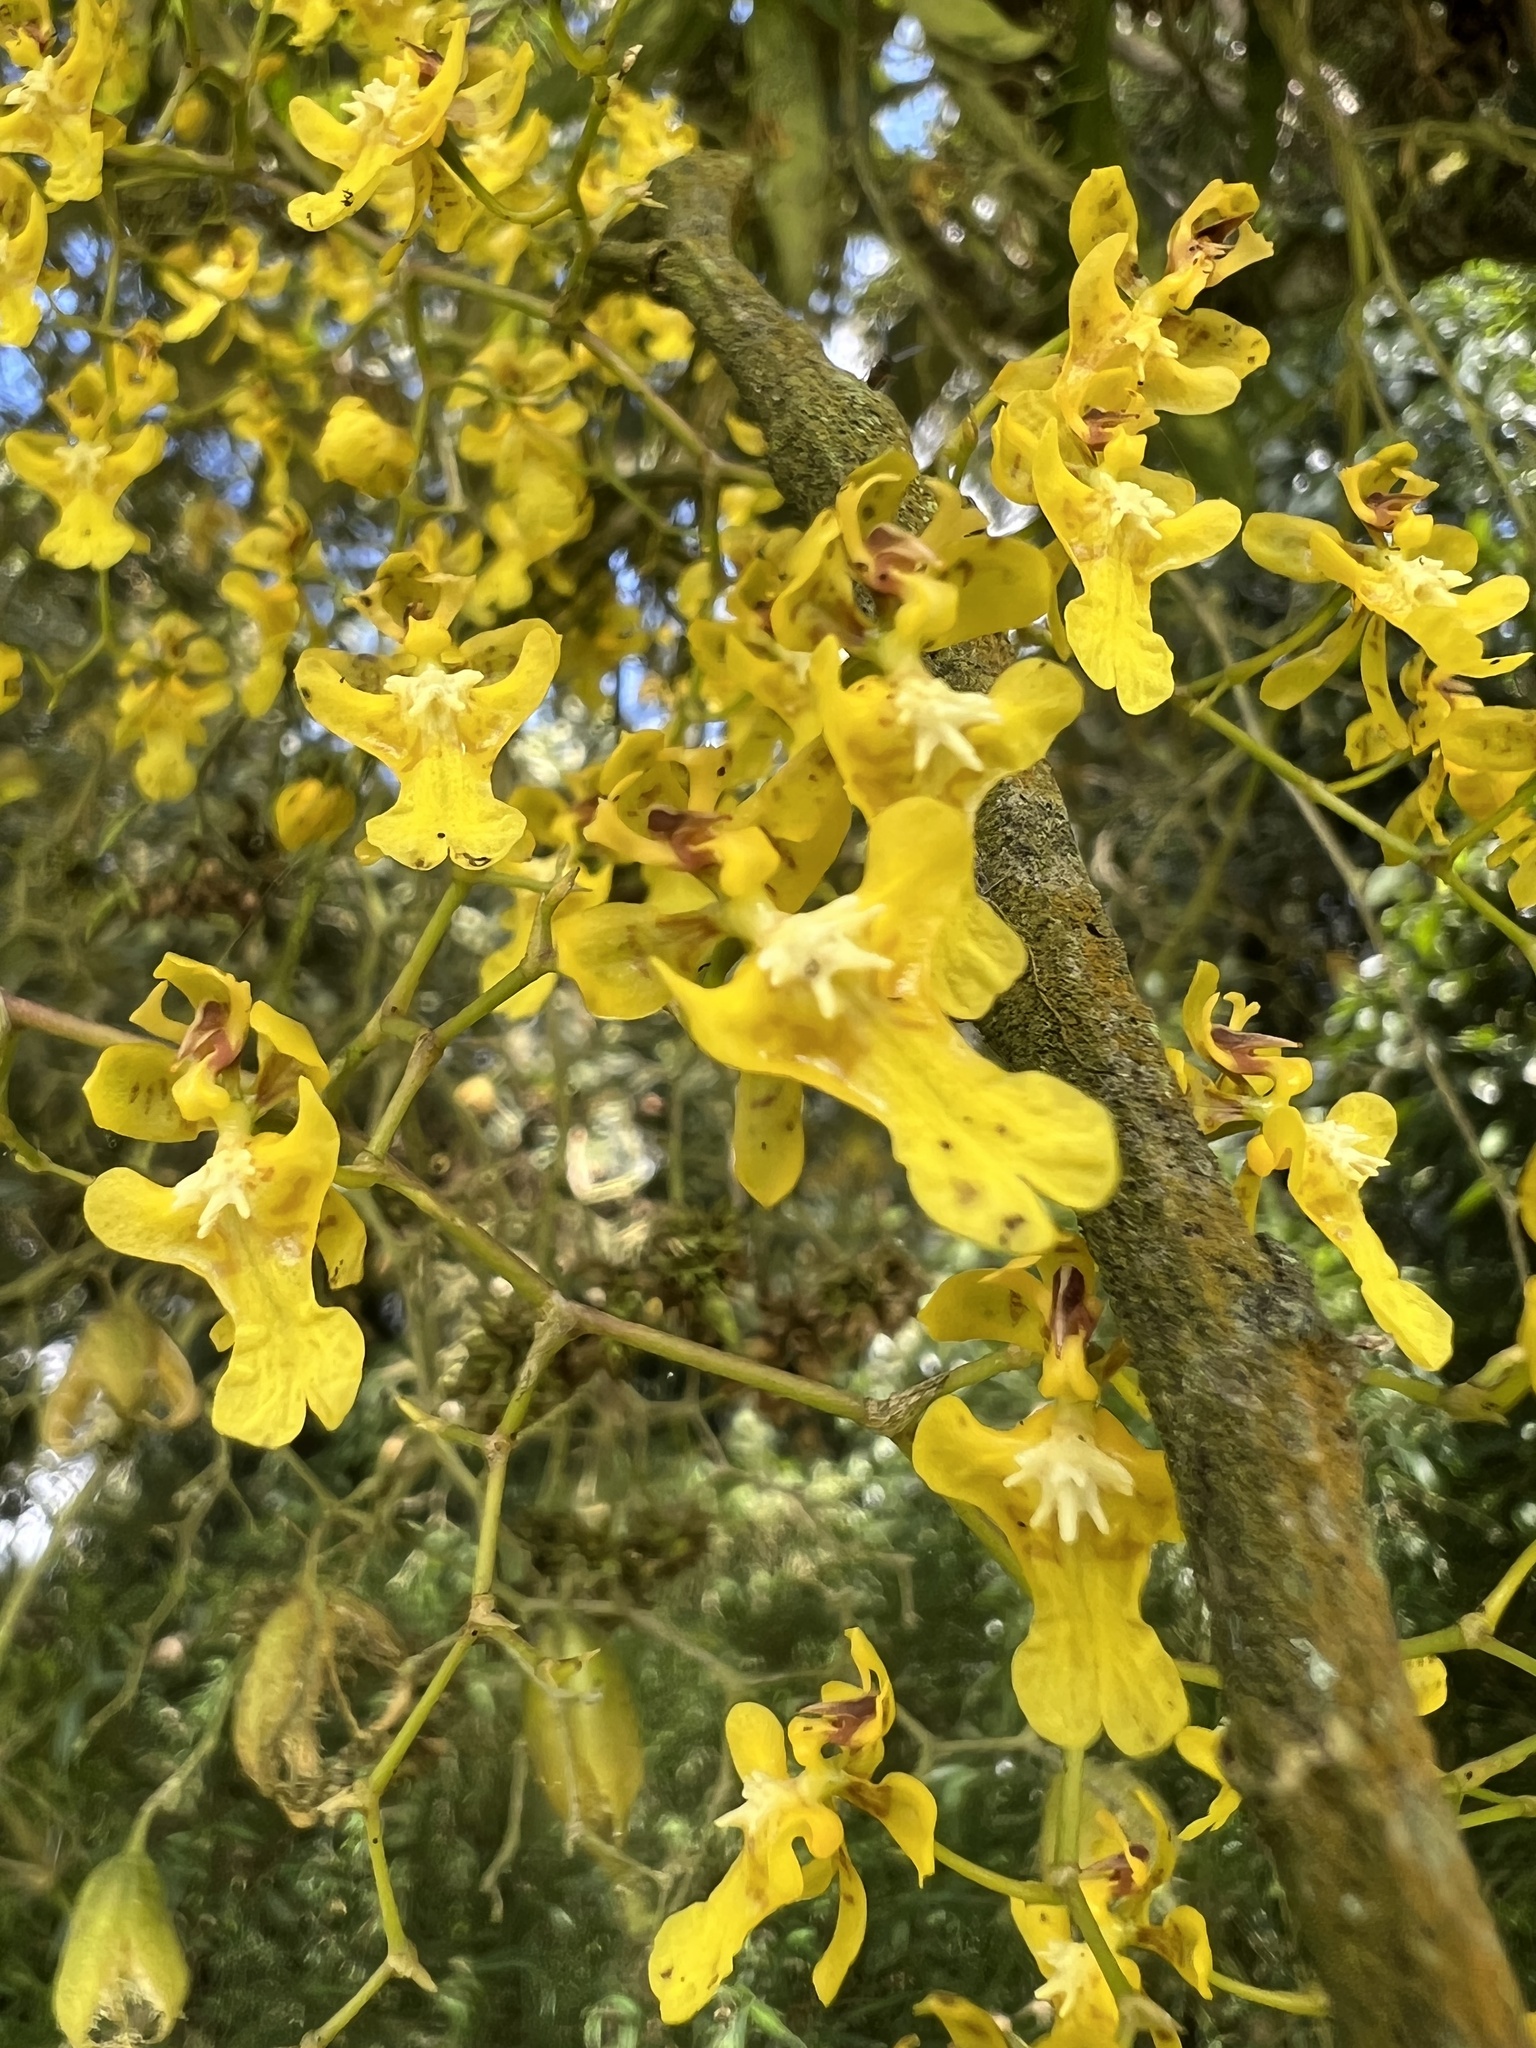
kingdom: Plantae
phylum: Tracheophyta
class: Liliopsida
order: Asparagales
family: Orchidaceae
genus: Oncidium
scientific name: Oncidium ornithorhynchum
